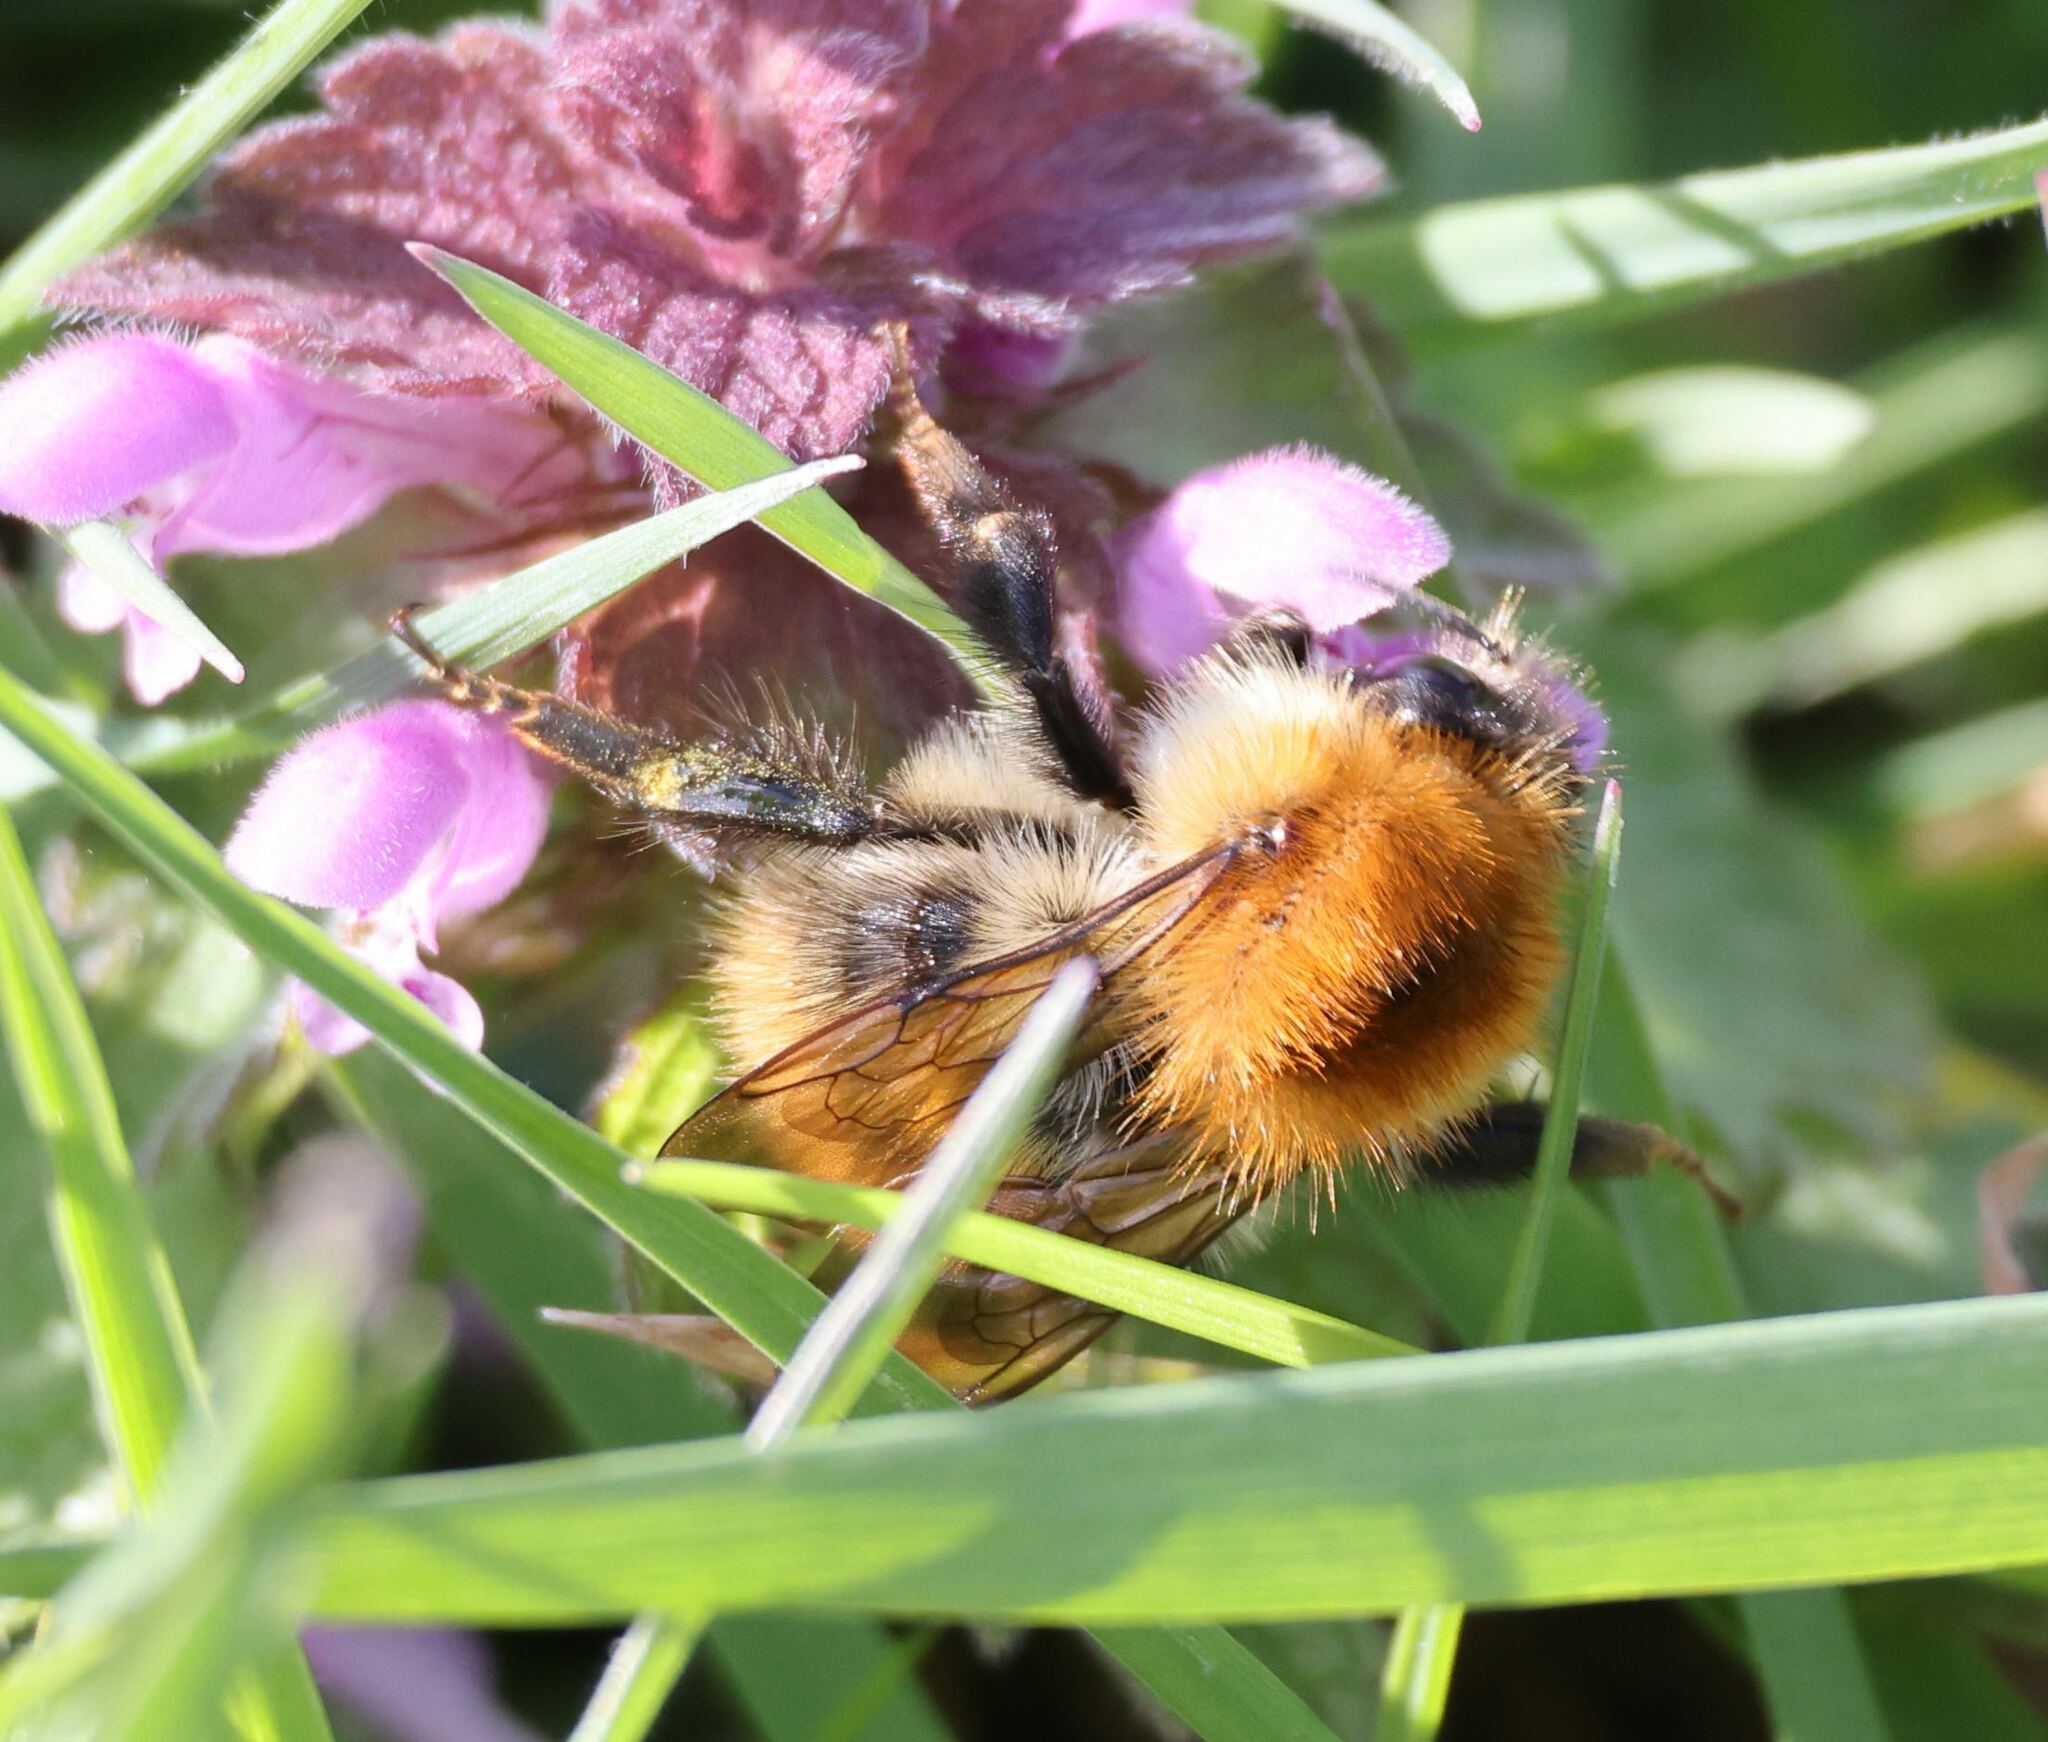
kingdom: Animalia
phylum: Arthropoda
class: Insecta
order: Hymenoptera
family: Apidae
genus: Bombus
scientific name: Bombus pascuorum
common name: Common carder bee
